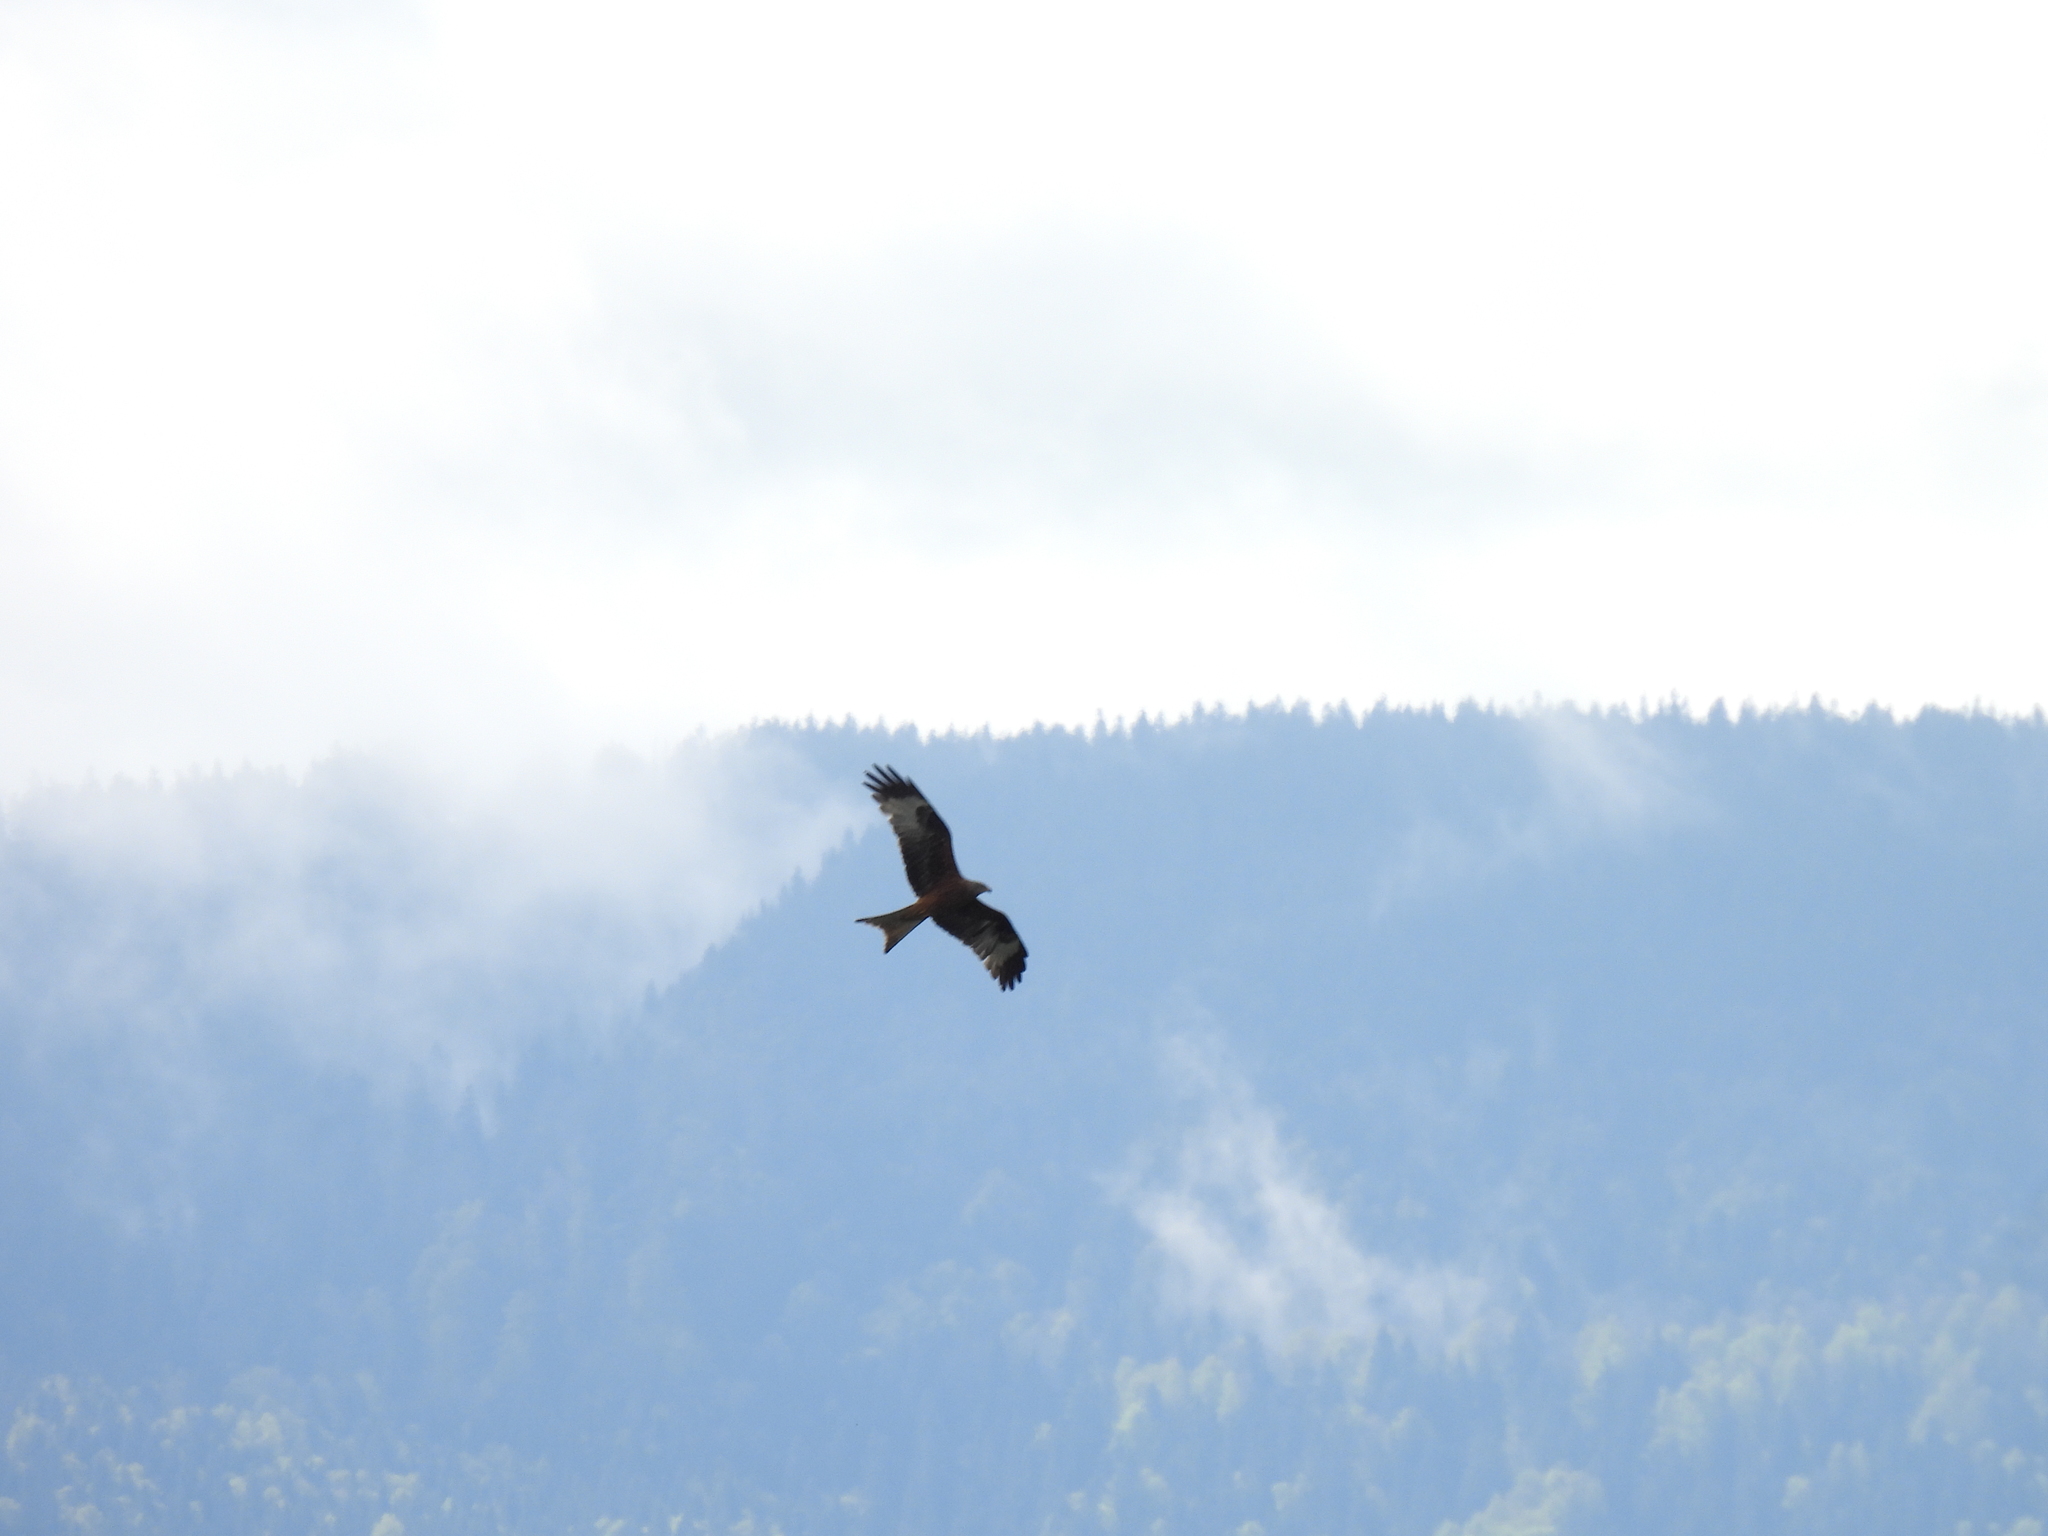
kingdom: Animalia
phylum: Chordata
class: Aves
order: Accipitriformes
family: Accipitridae
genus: Milvus
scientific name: Milvus milvus
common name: Red kite
